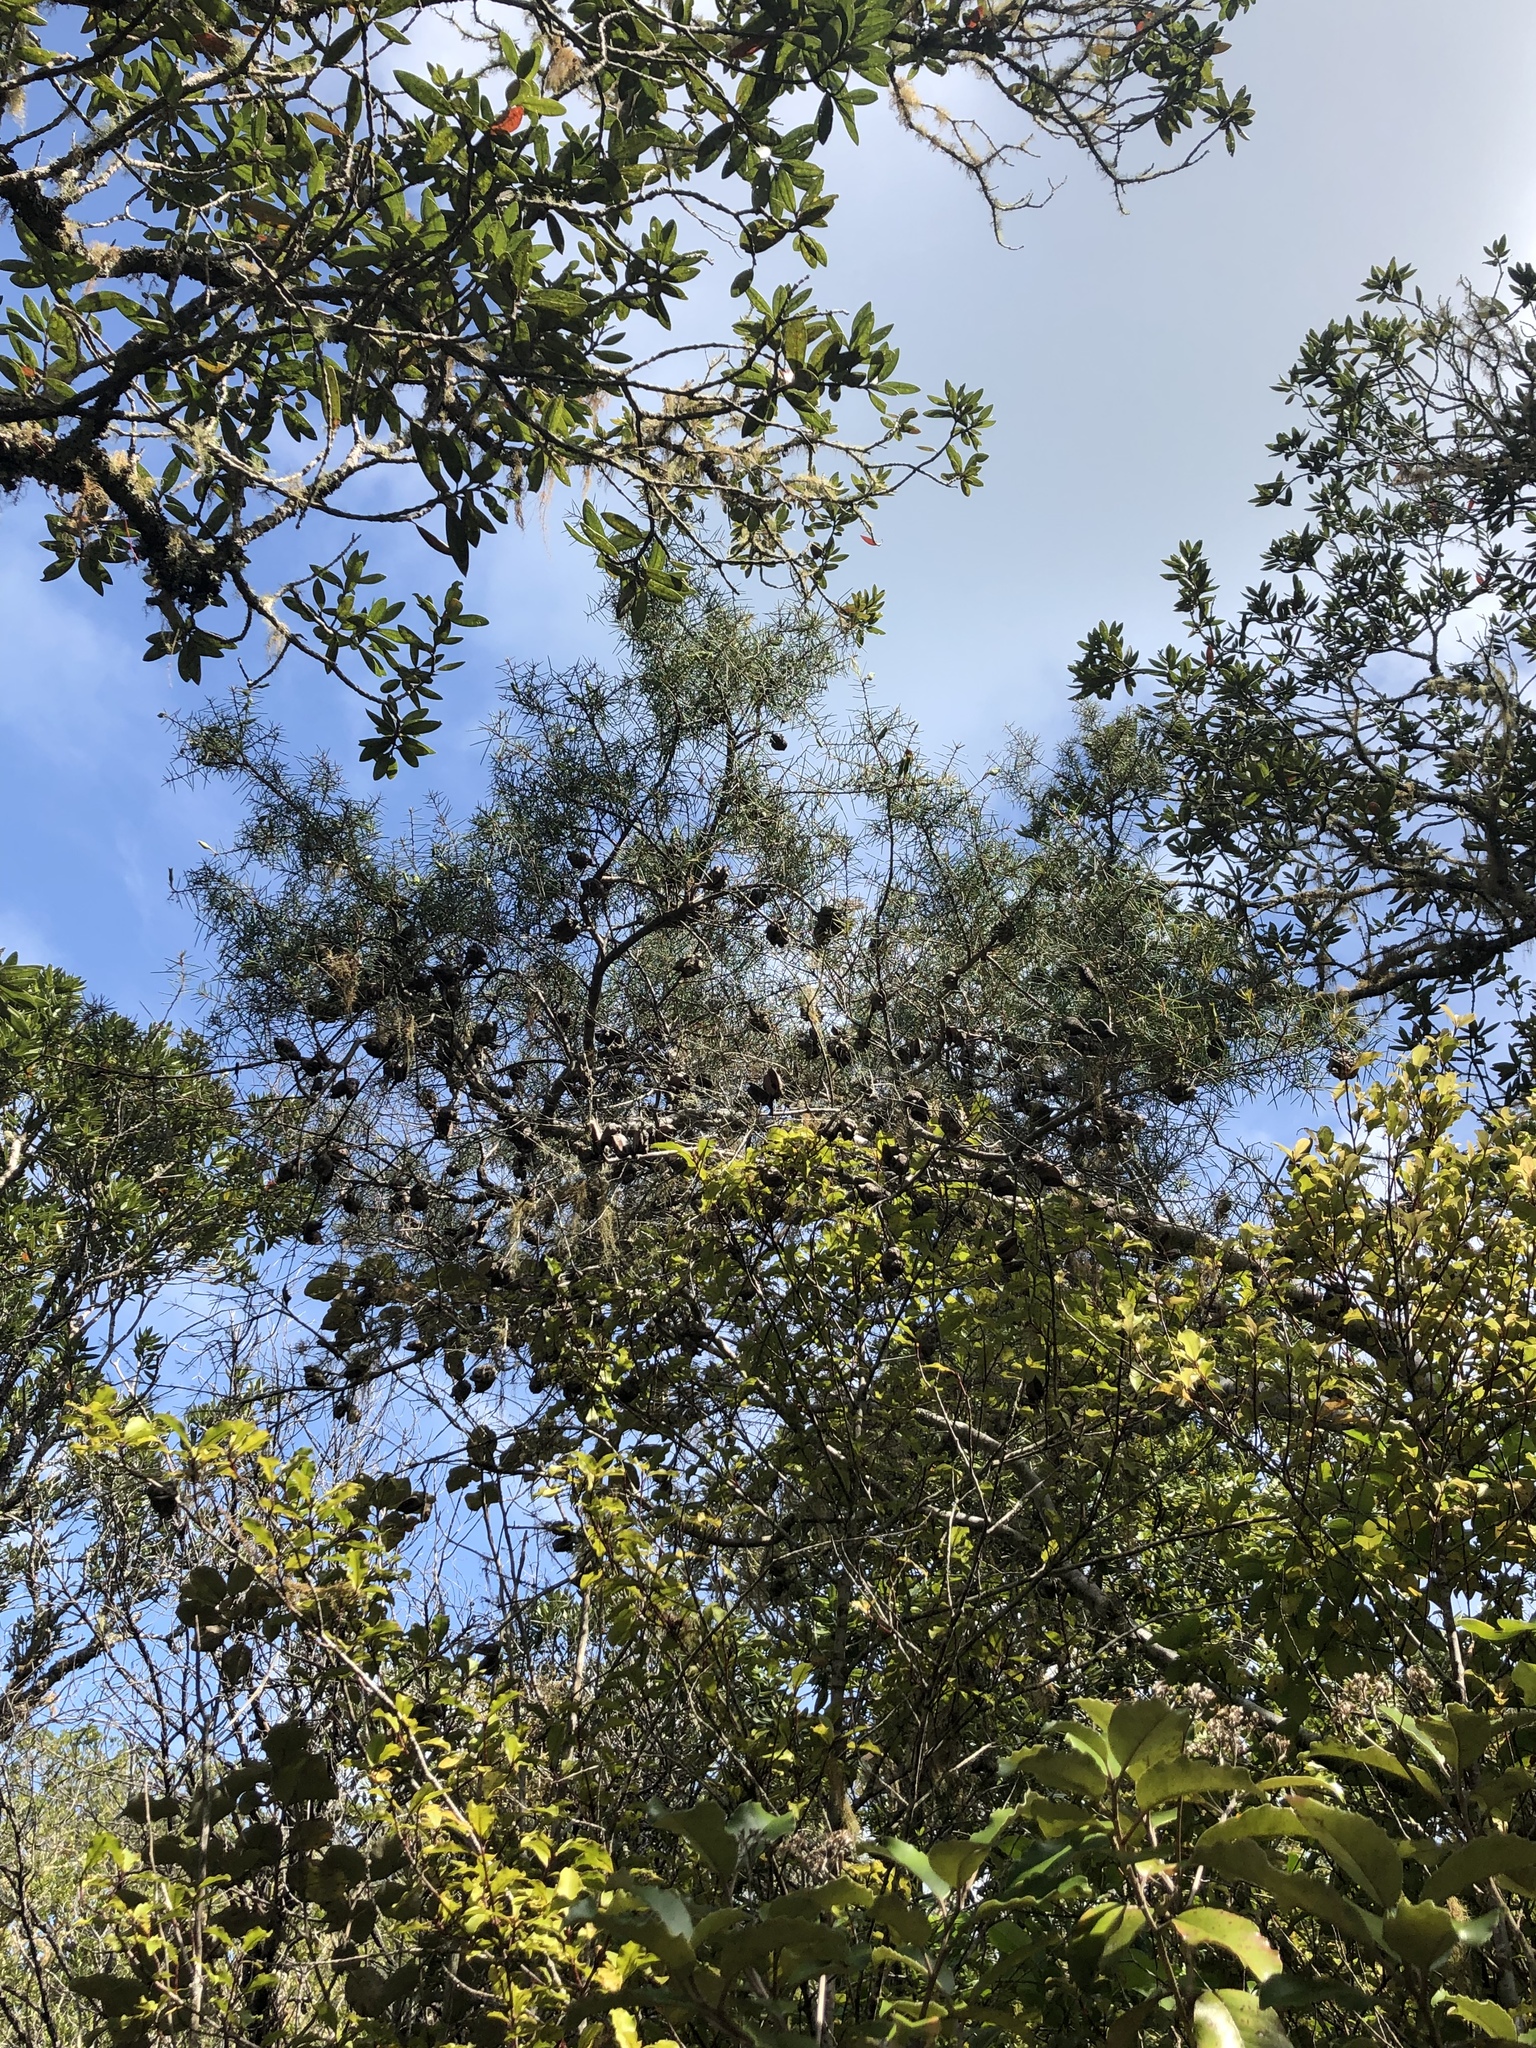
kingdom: Plantae
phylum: Tracheophyta
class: Magnoliopsida
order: Proteales
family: Proteaceae
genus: Hakea
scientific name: Hakea sericea
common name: Needle bush
